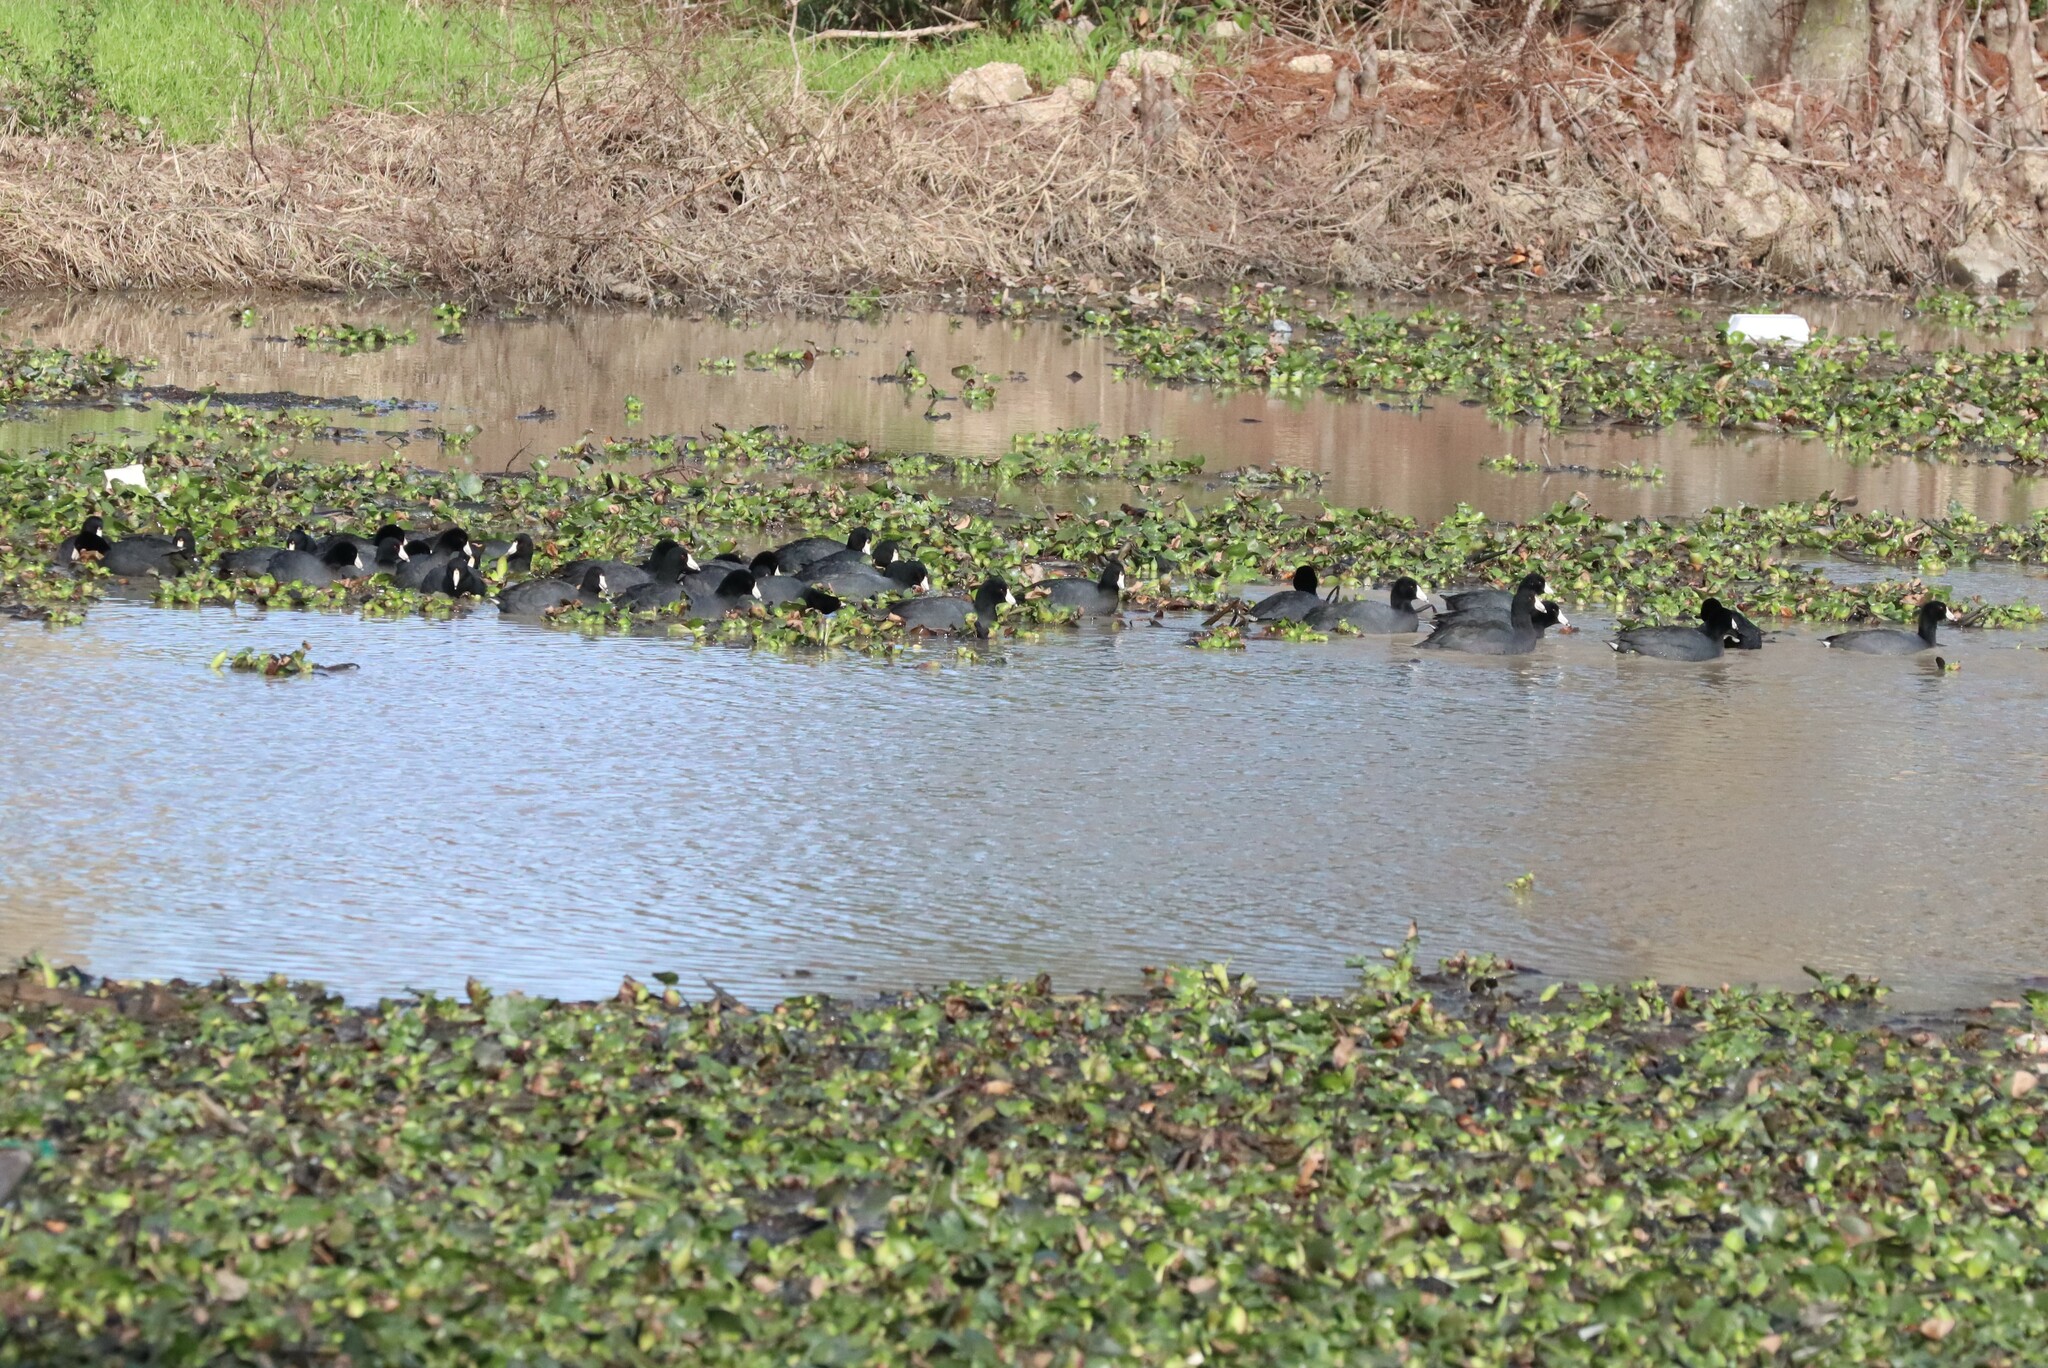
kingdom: Animalia
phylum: Chordata
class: Aves
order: Gruiformes
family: Rallidae
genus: Fulica
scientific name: Fulica americana
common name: American coot
